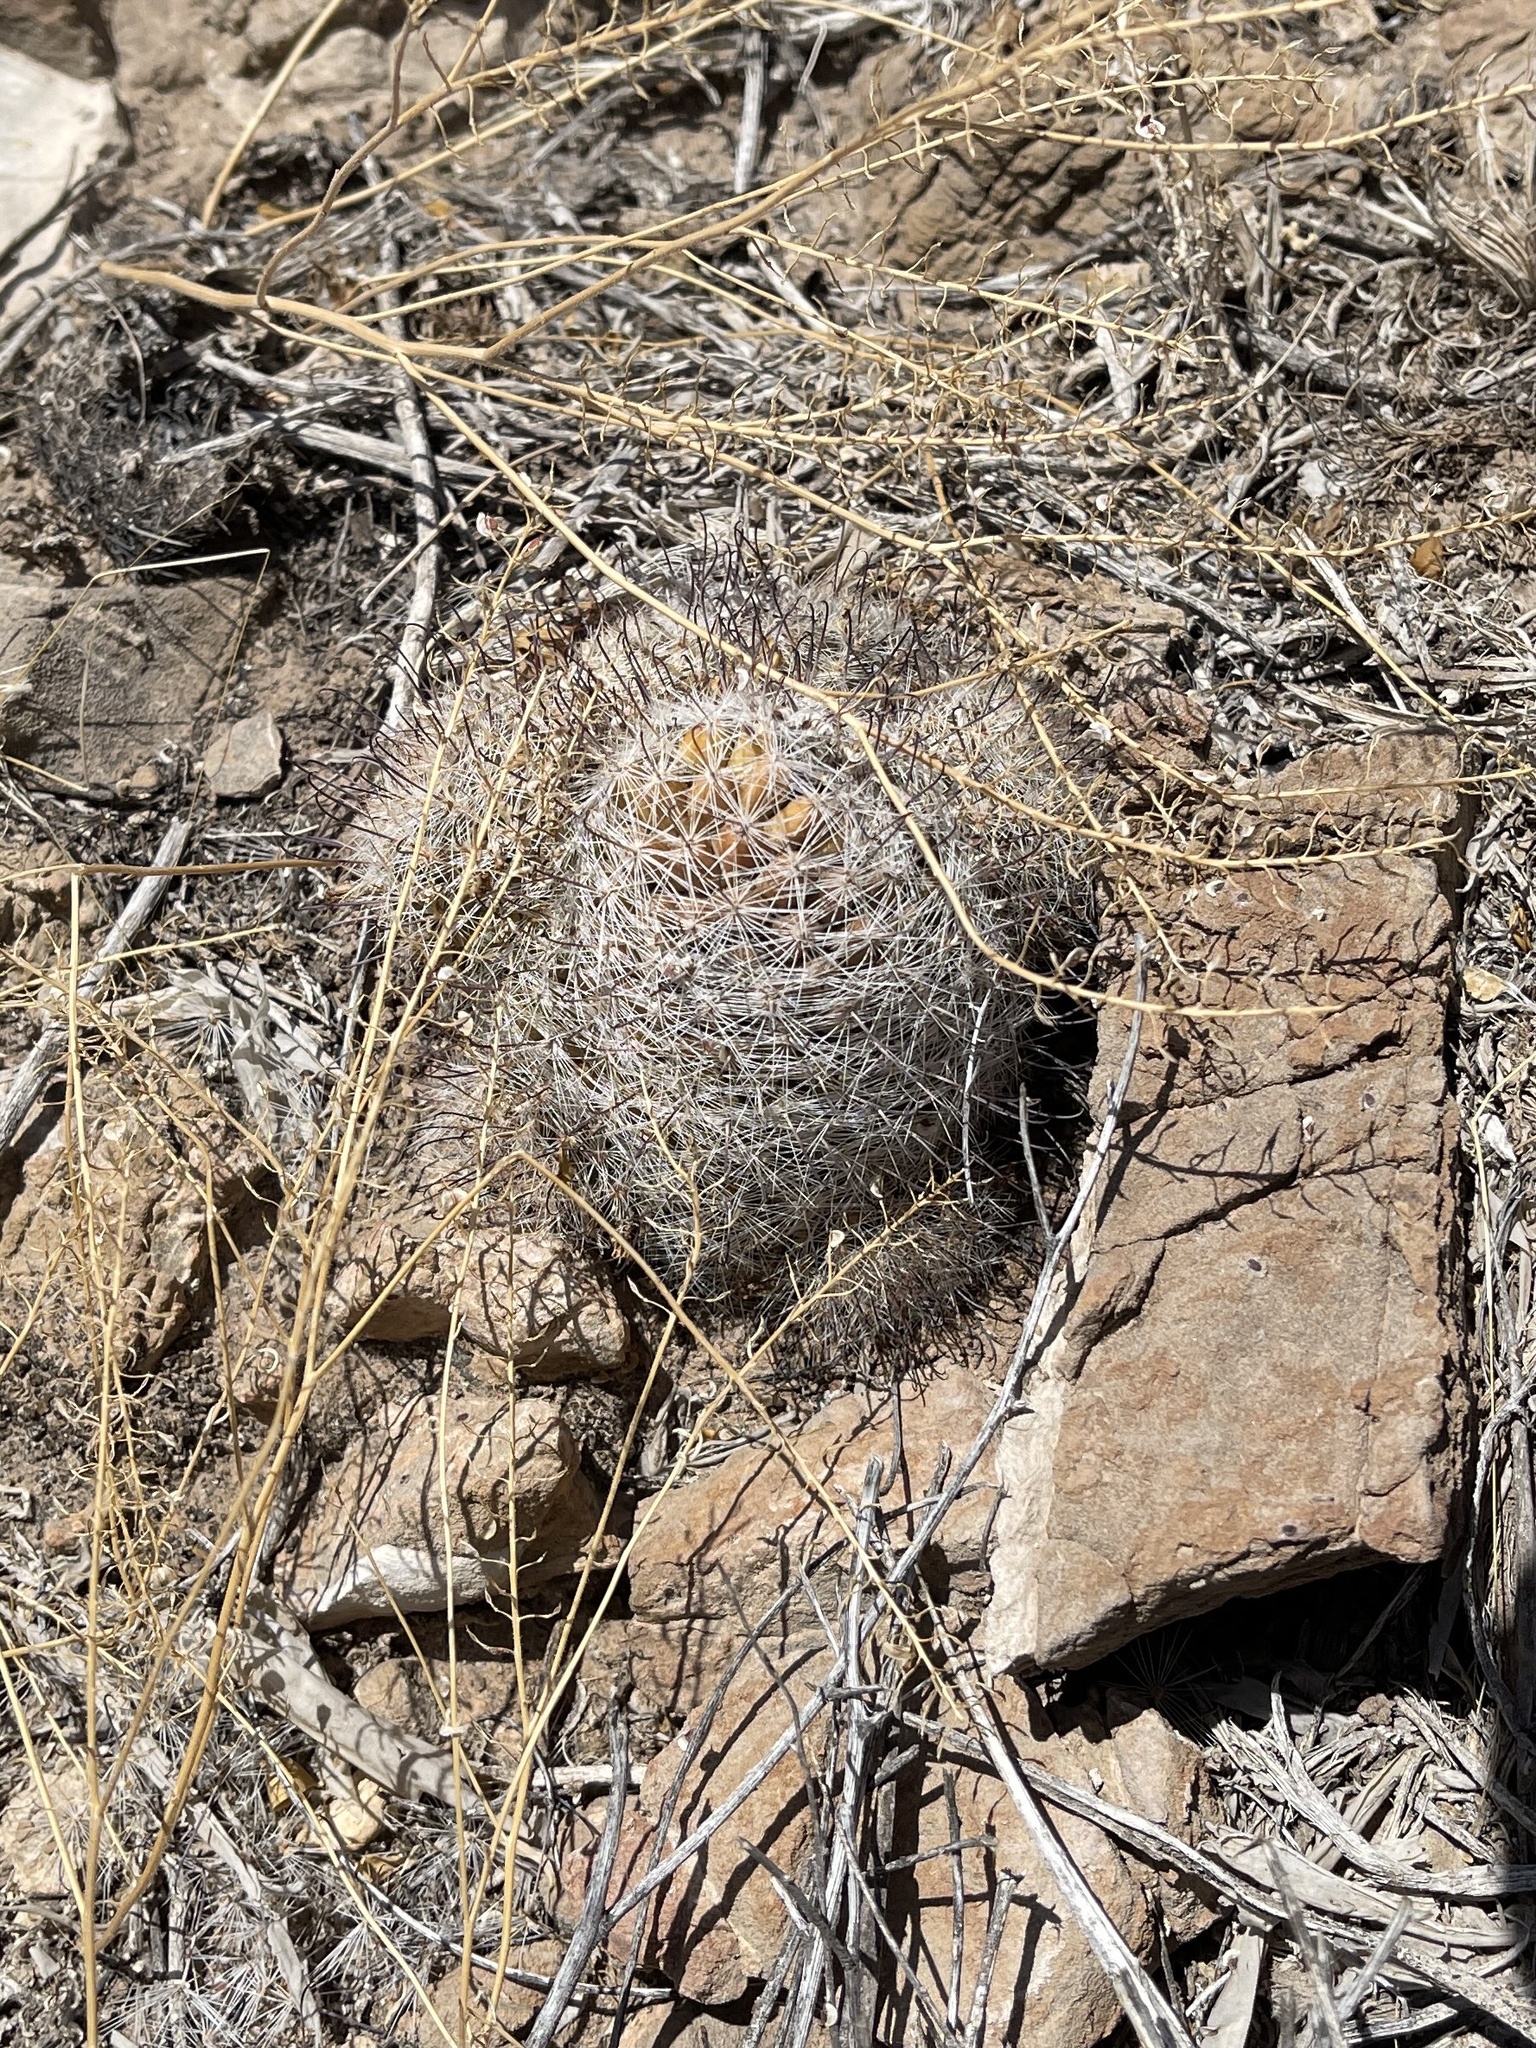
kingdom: Plantae
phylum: Tracheophyta
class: Magnoliopsida
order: Caryophyllales
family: Cactaceae
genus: Cochemiea
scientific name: Cochemiea grahamii
